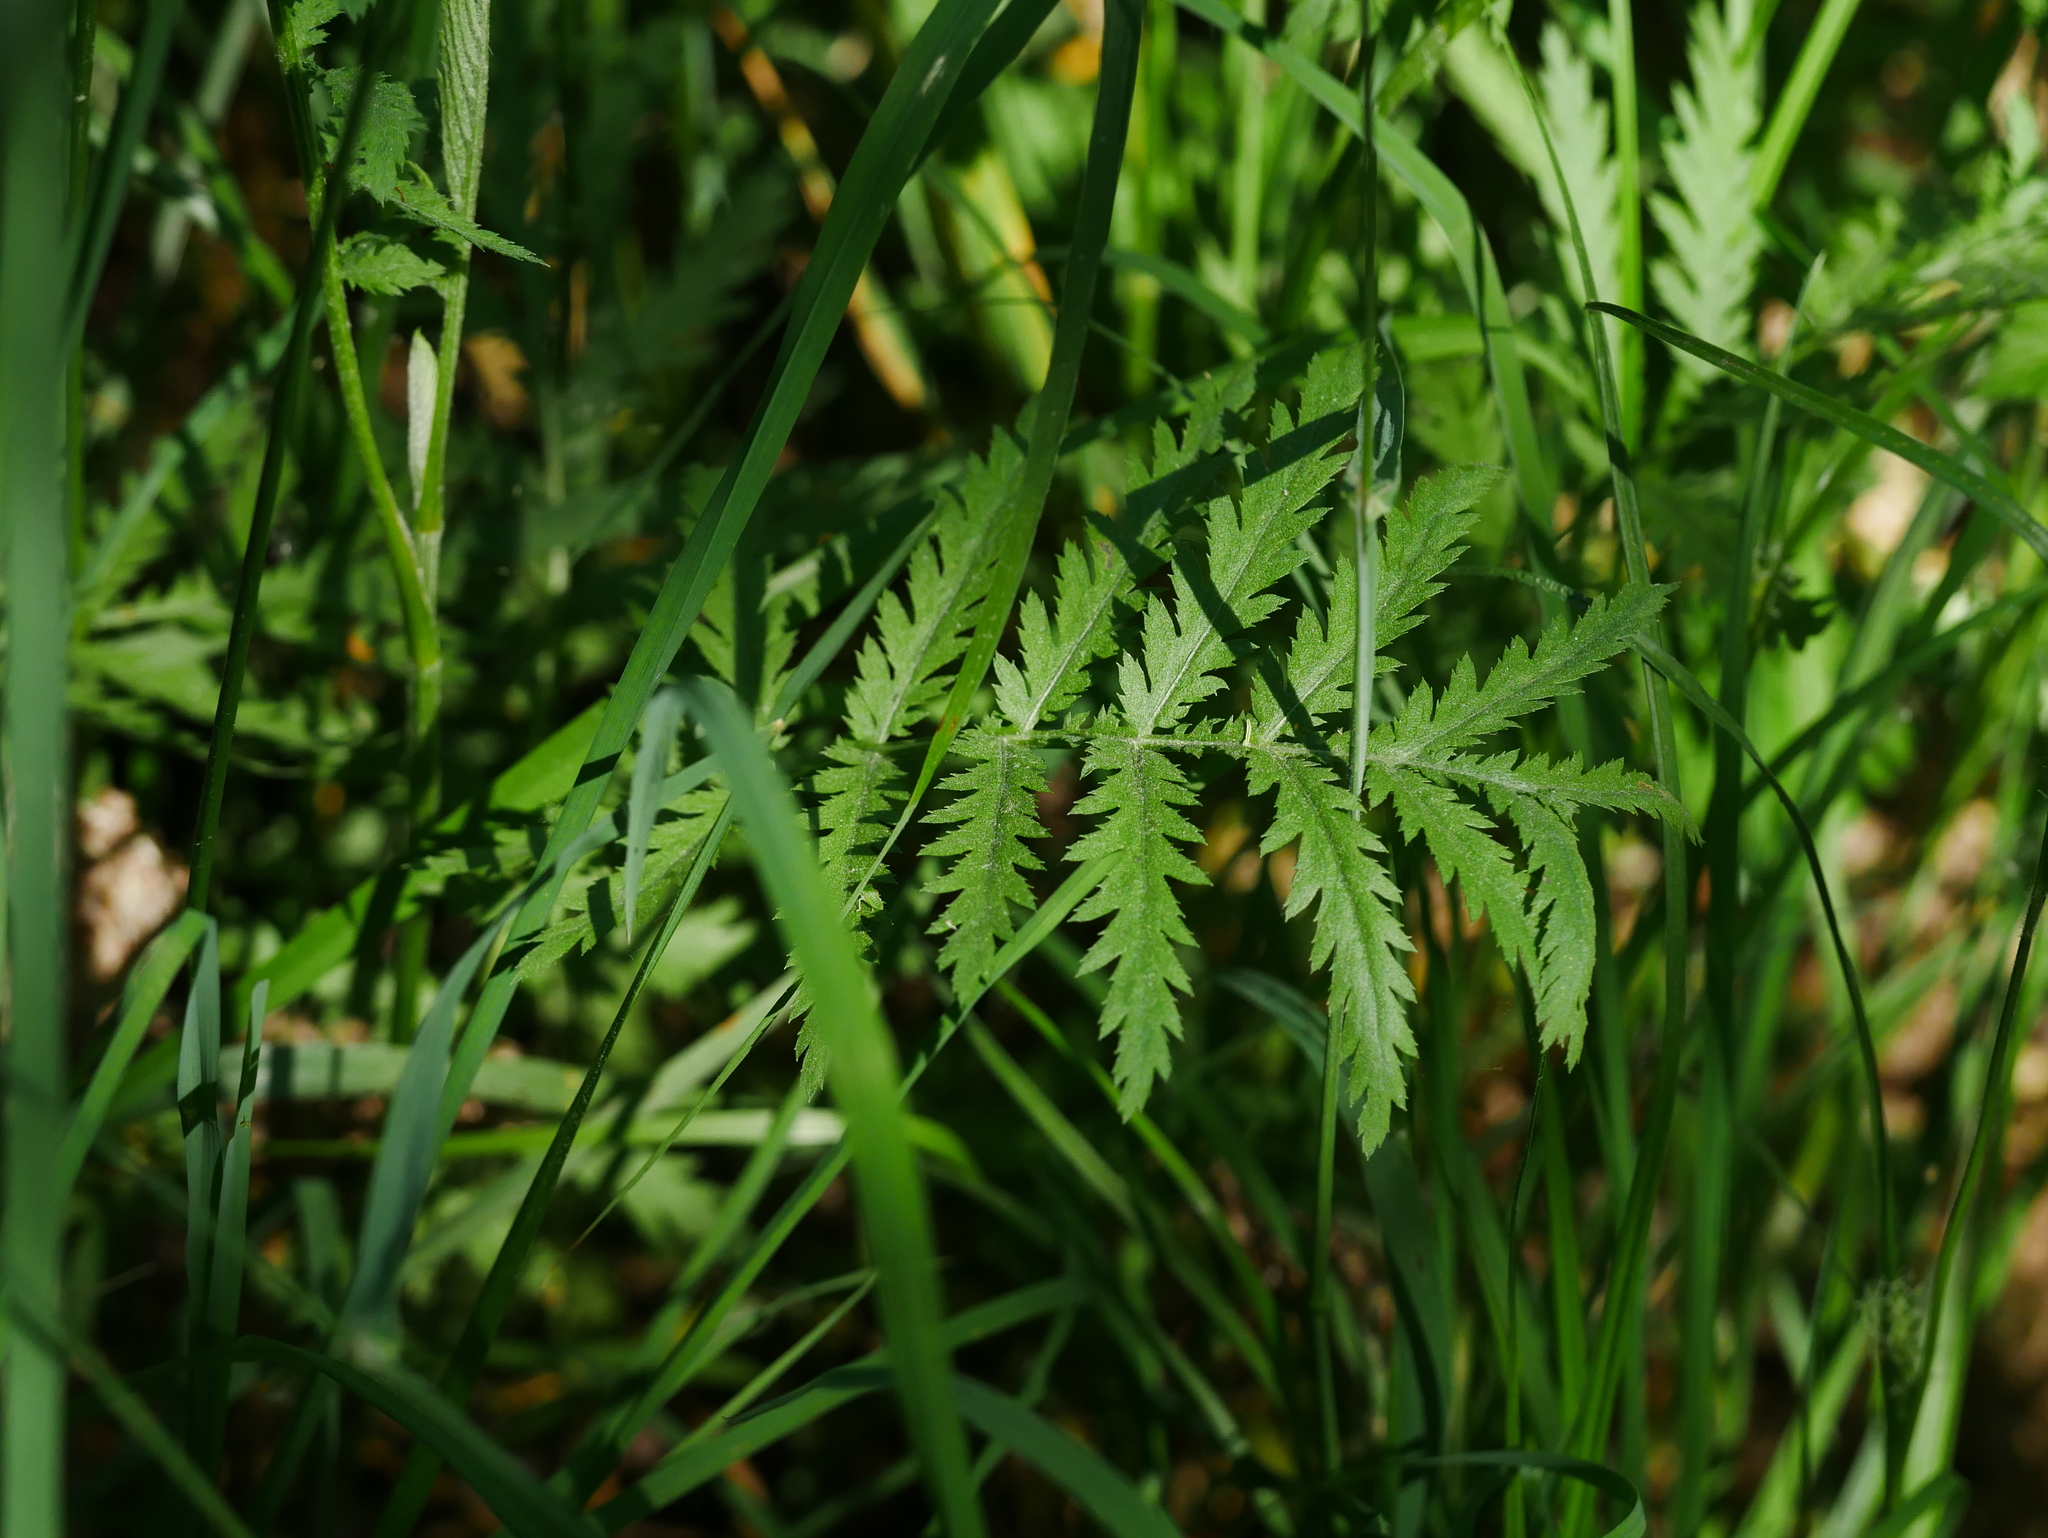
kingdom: Plantae
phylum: Tracheophyta
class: Magnoliopsida
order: Asterales
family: Asteraceae
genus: Tanacetum
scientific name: Tanacetum vulgare
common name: Common tansy
